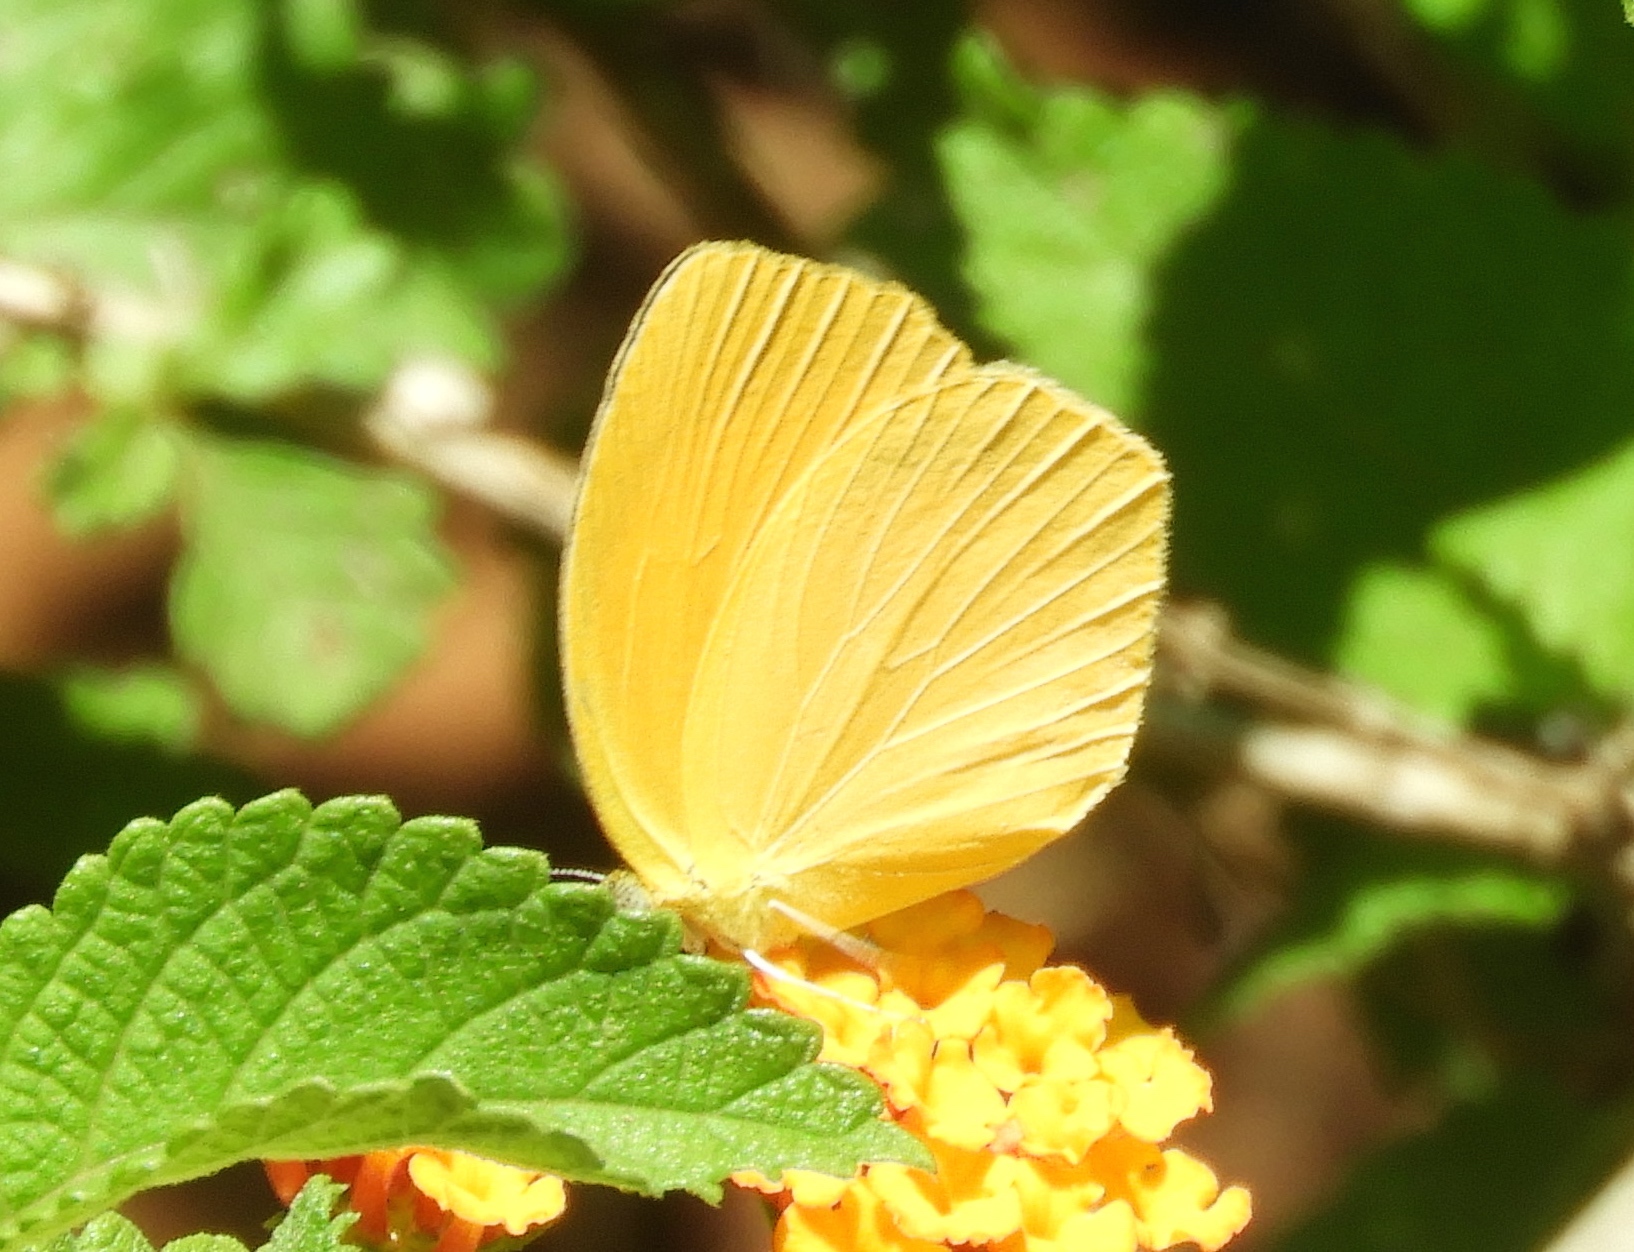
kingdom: Animalia
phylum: Arthropoda
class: Insecta
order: Lepidoptera
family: Pieridae
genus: Pyrisitia
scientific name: Pyrisitia proterpia
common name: Tailed orange
